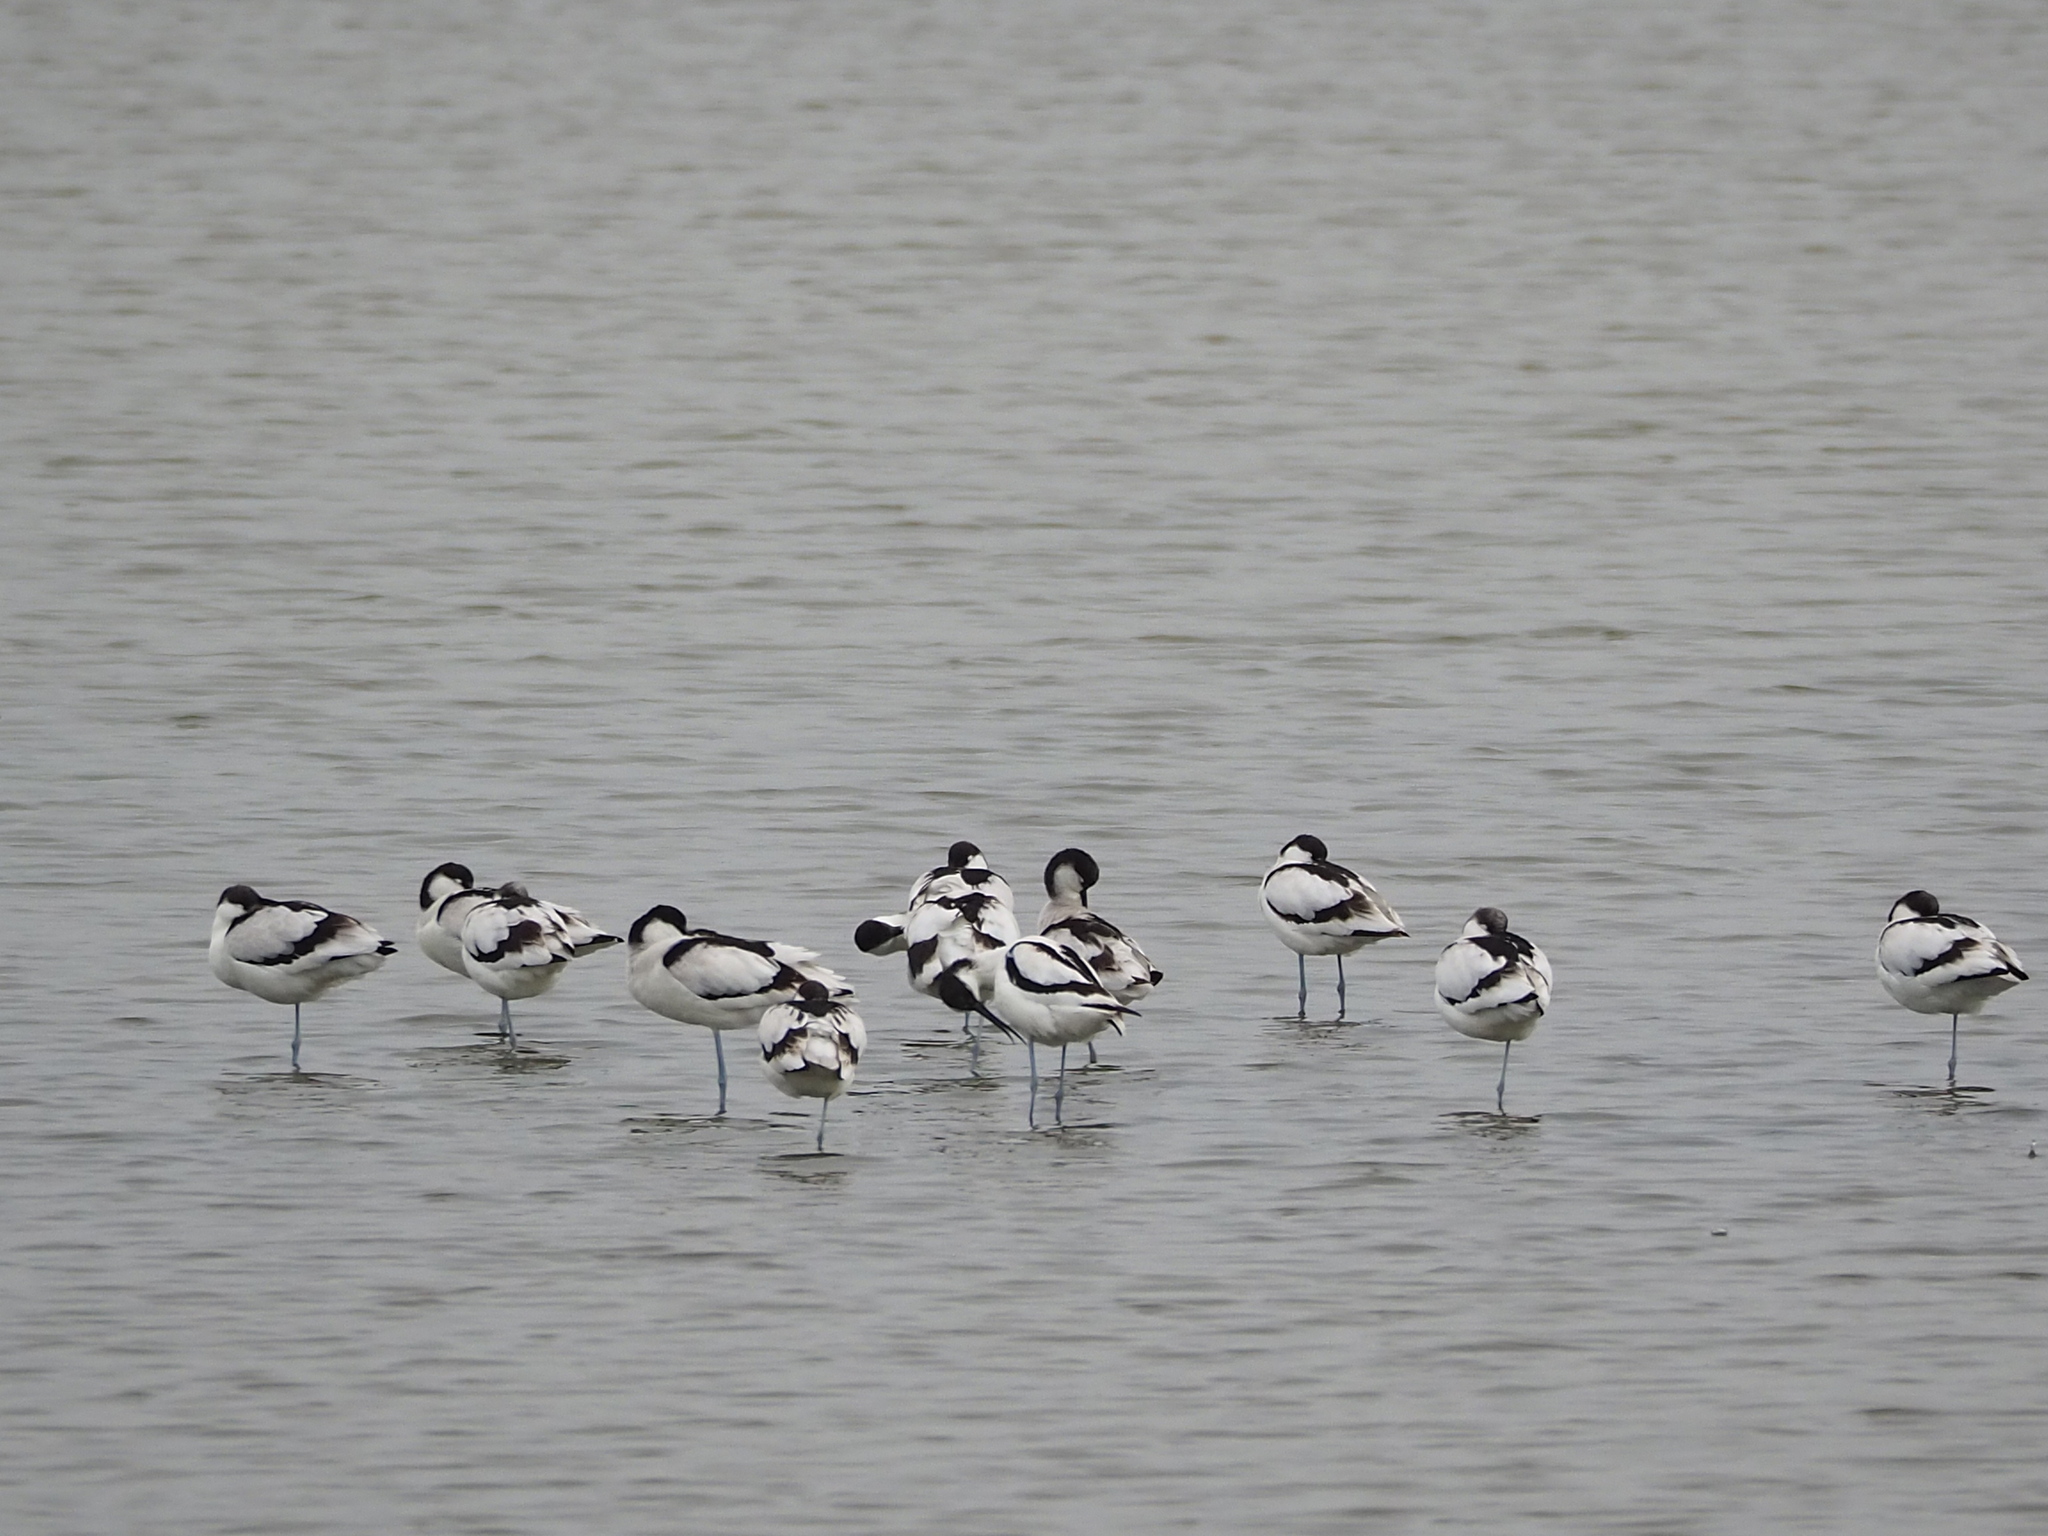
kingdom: Animalia
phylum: Chordata
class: Aves
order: Charadriiformes
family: Recurvirostridae
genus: Recurvirostra
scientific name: Recurvirostra avosetta
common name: Pied avocet
